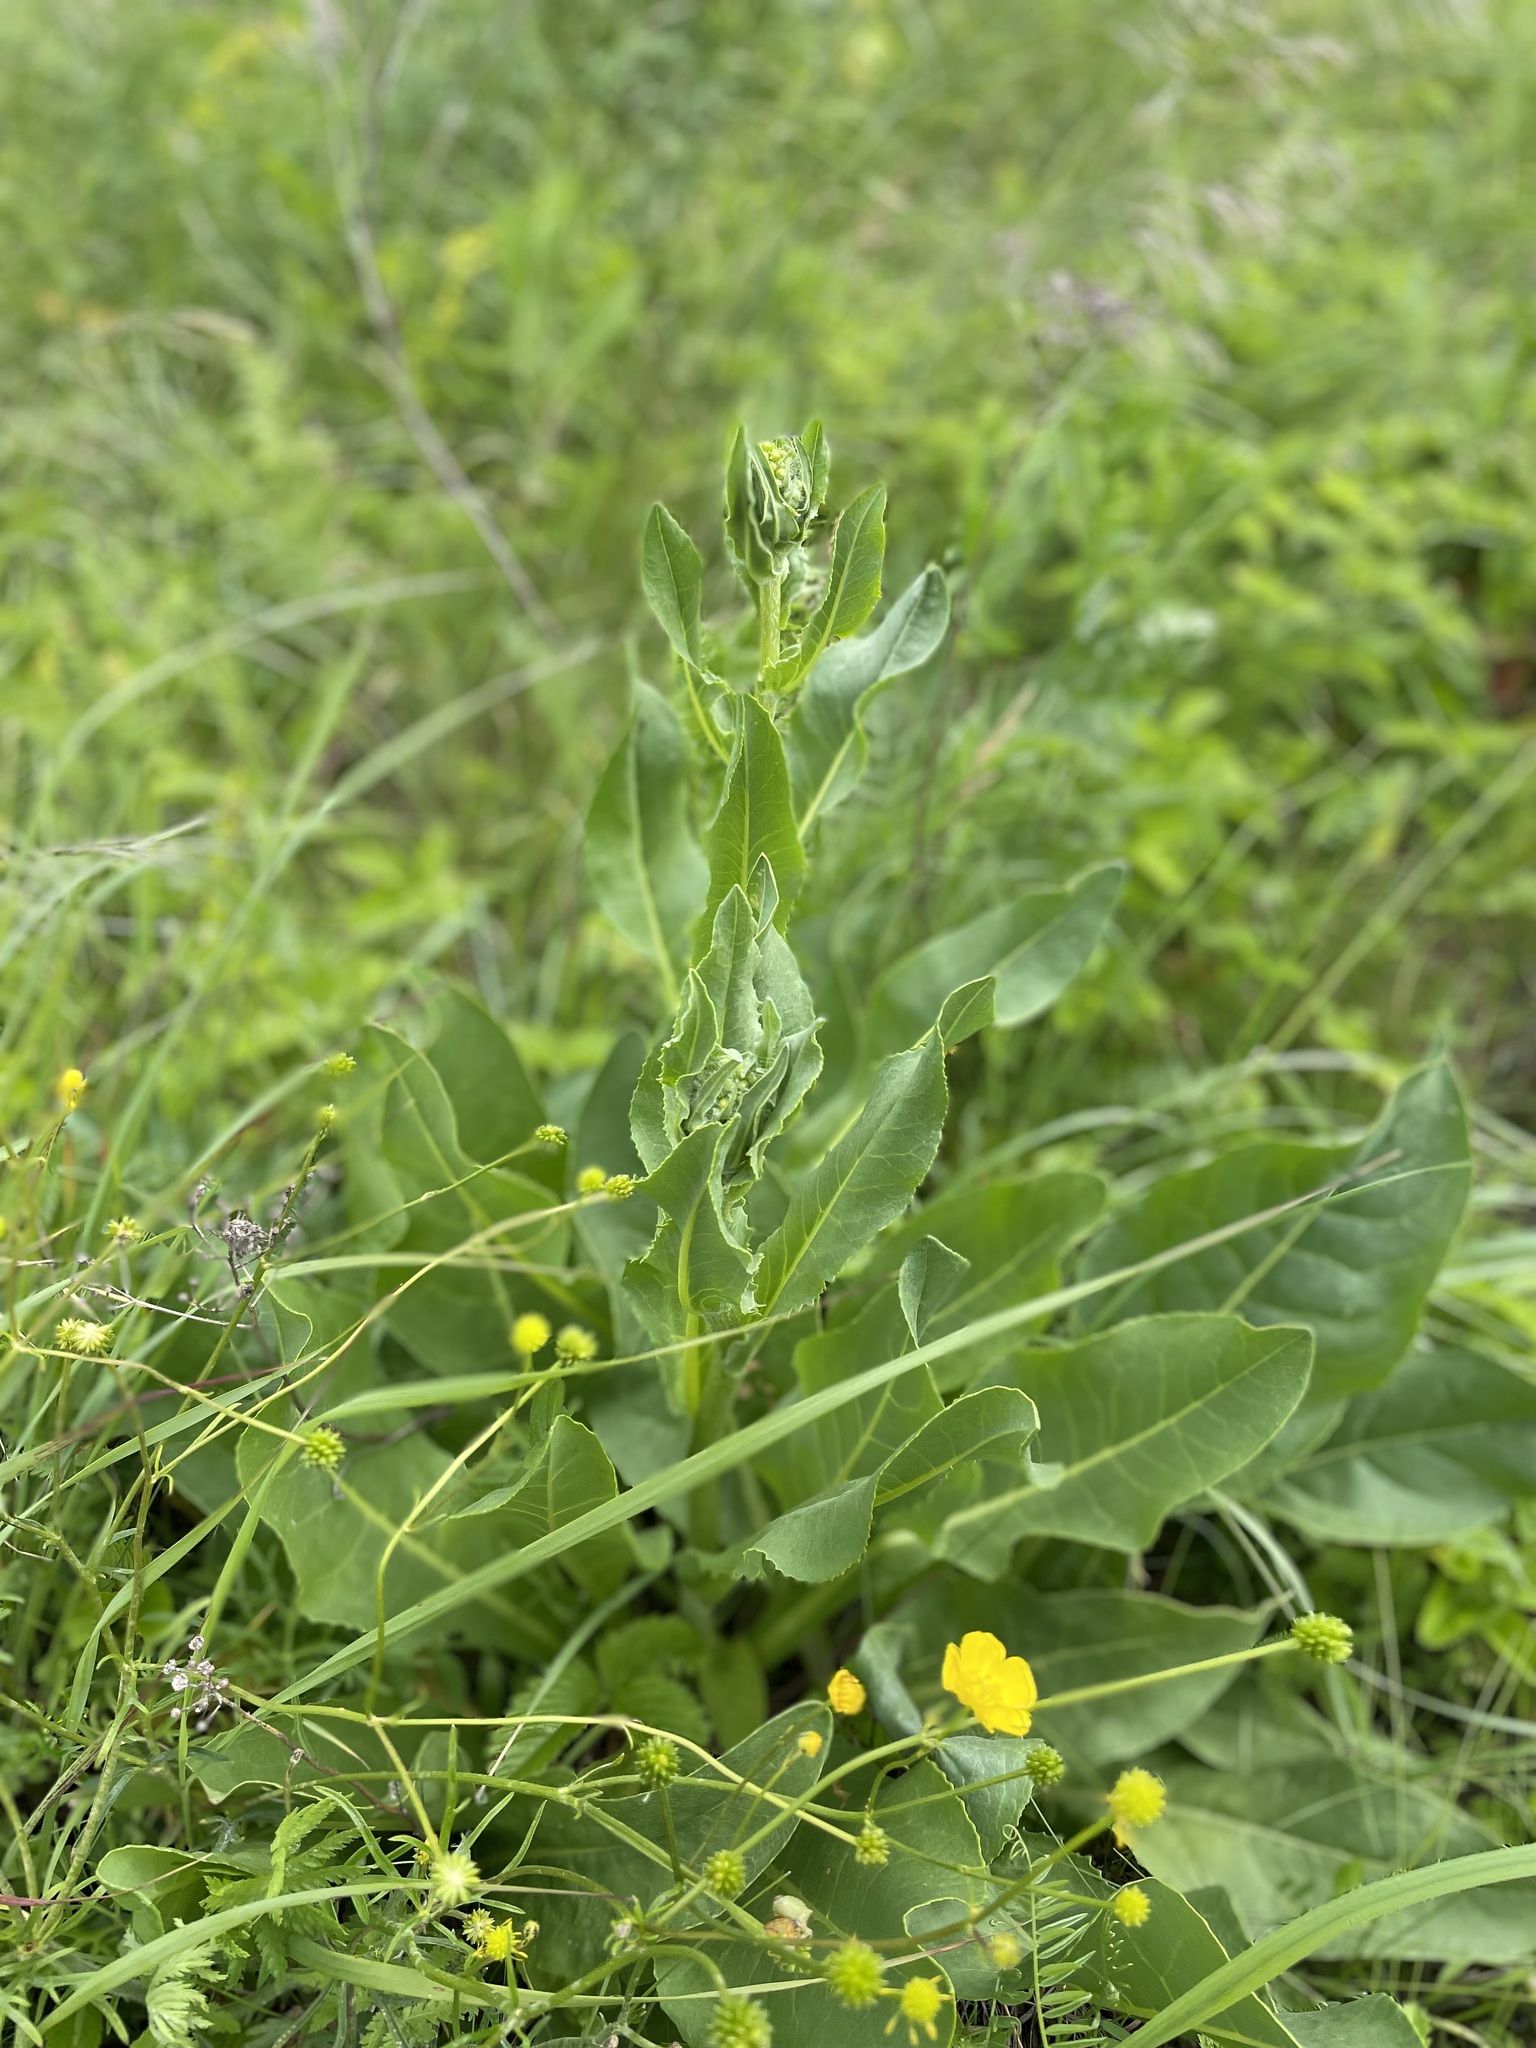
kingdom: Plantae
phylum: Tracheophyta
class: Magnoliopsida
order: Asterales
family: Asteraceae
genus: Senecio
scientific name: Senecio doria
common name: Golden ragwort
